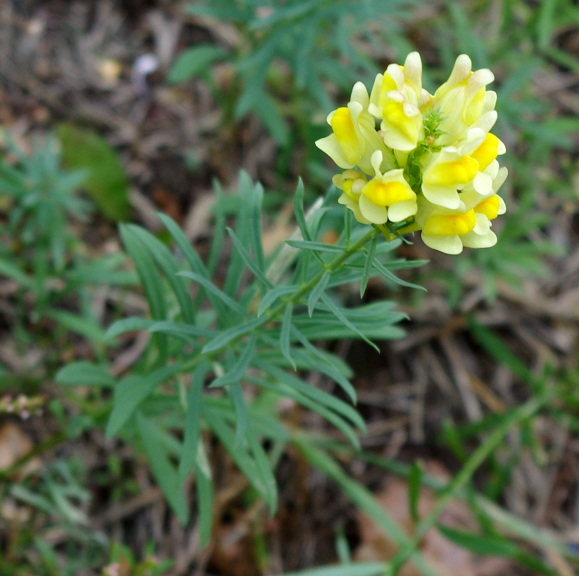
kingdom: Plantae
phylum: Tracheophyta
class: Magnoliopsida
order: Lamiales
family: Plantaginaceae
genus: Linaria
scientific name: Linaria vulgaris
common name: Butter and eggs
